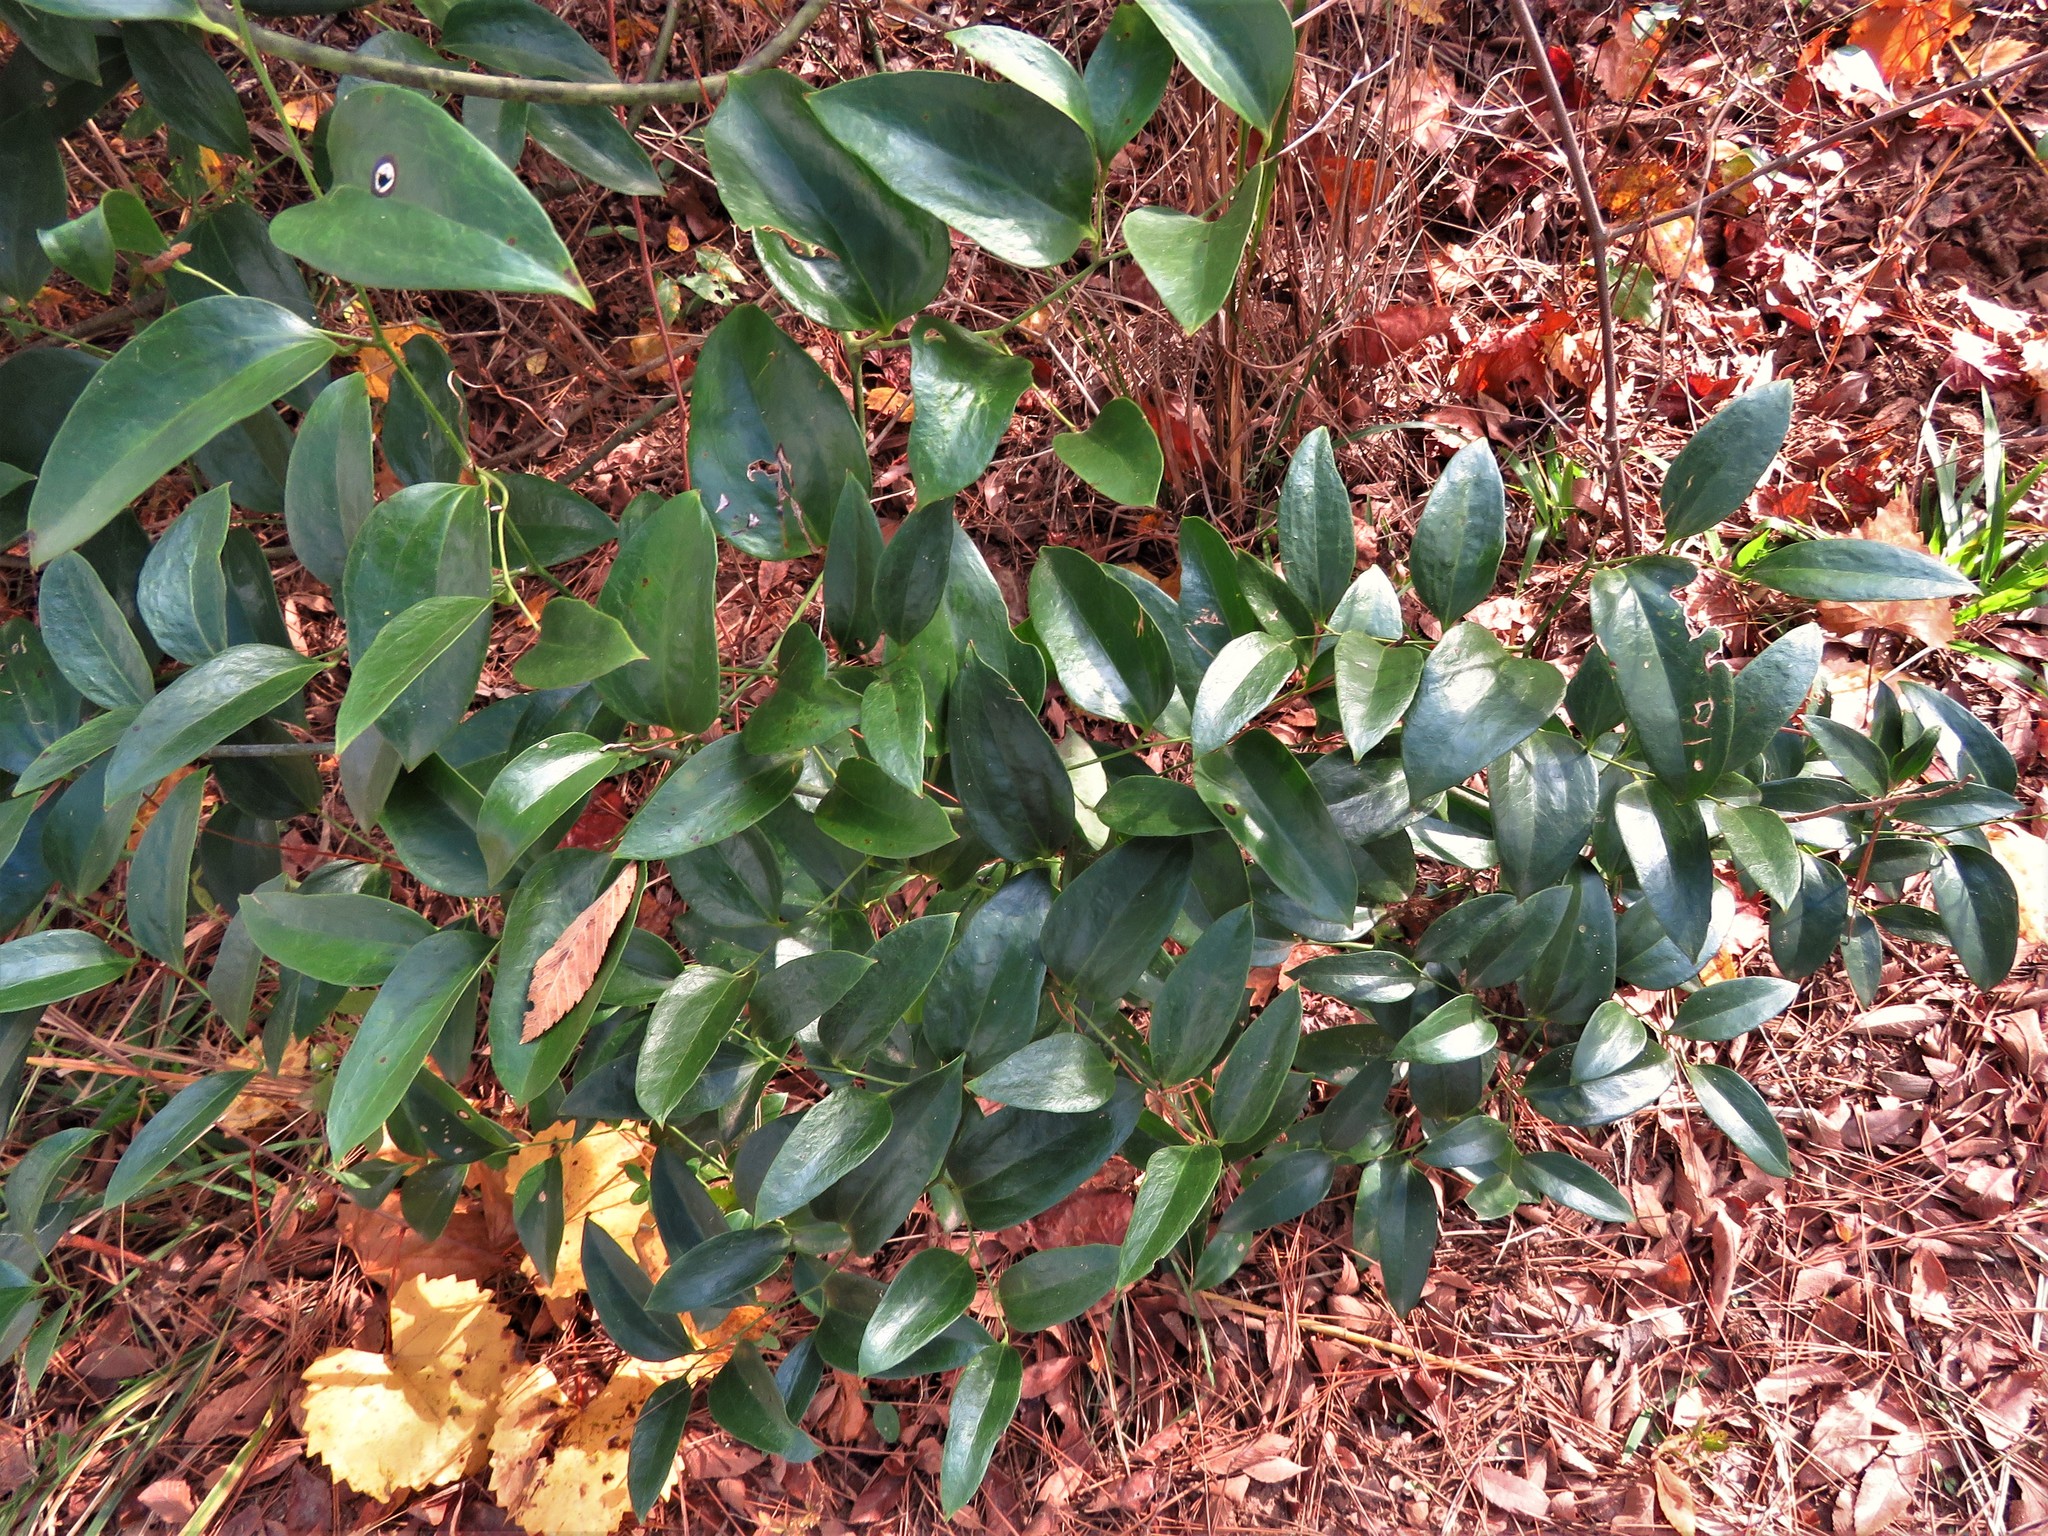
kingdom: Plantae
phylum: Tracheophyta
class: Liliopsida
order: Liliales
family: Smilacaceae
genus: Smilax
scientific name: Smilax maritima
